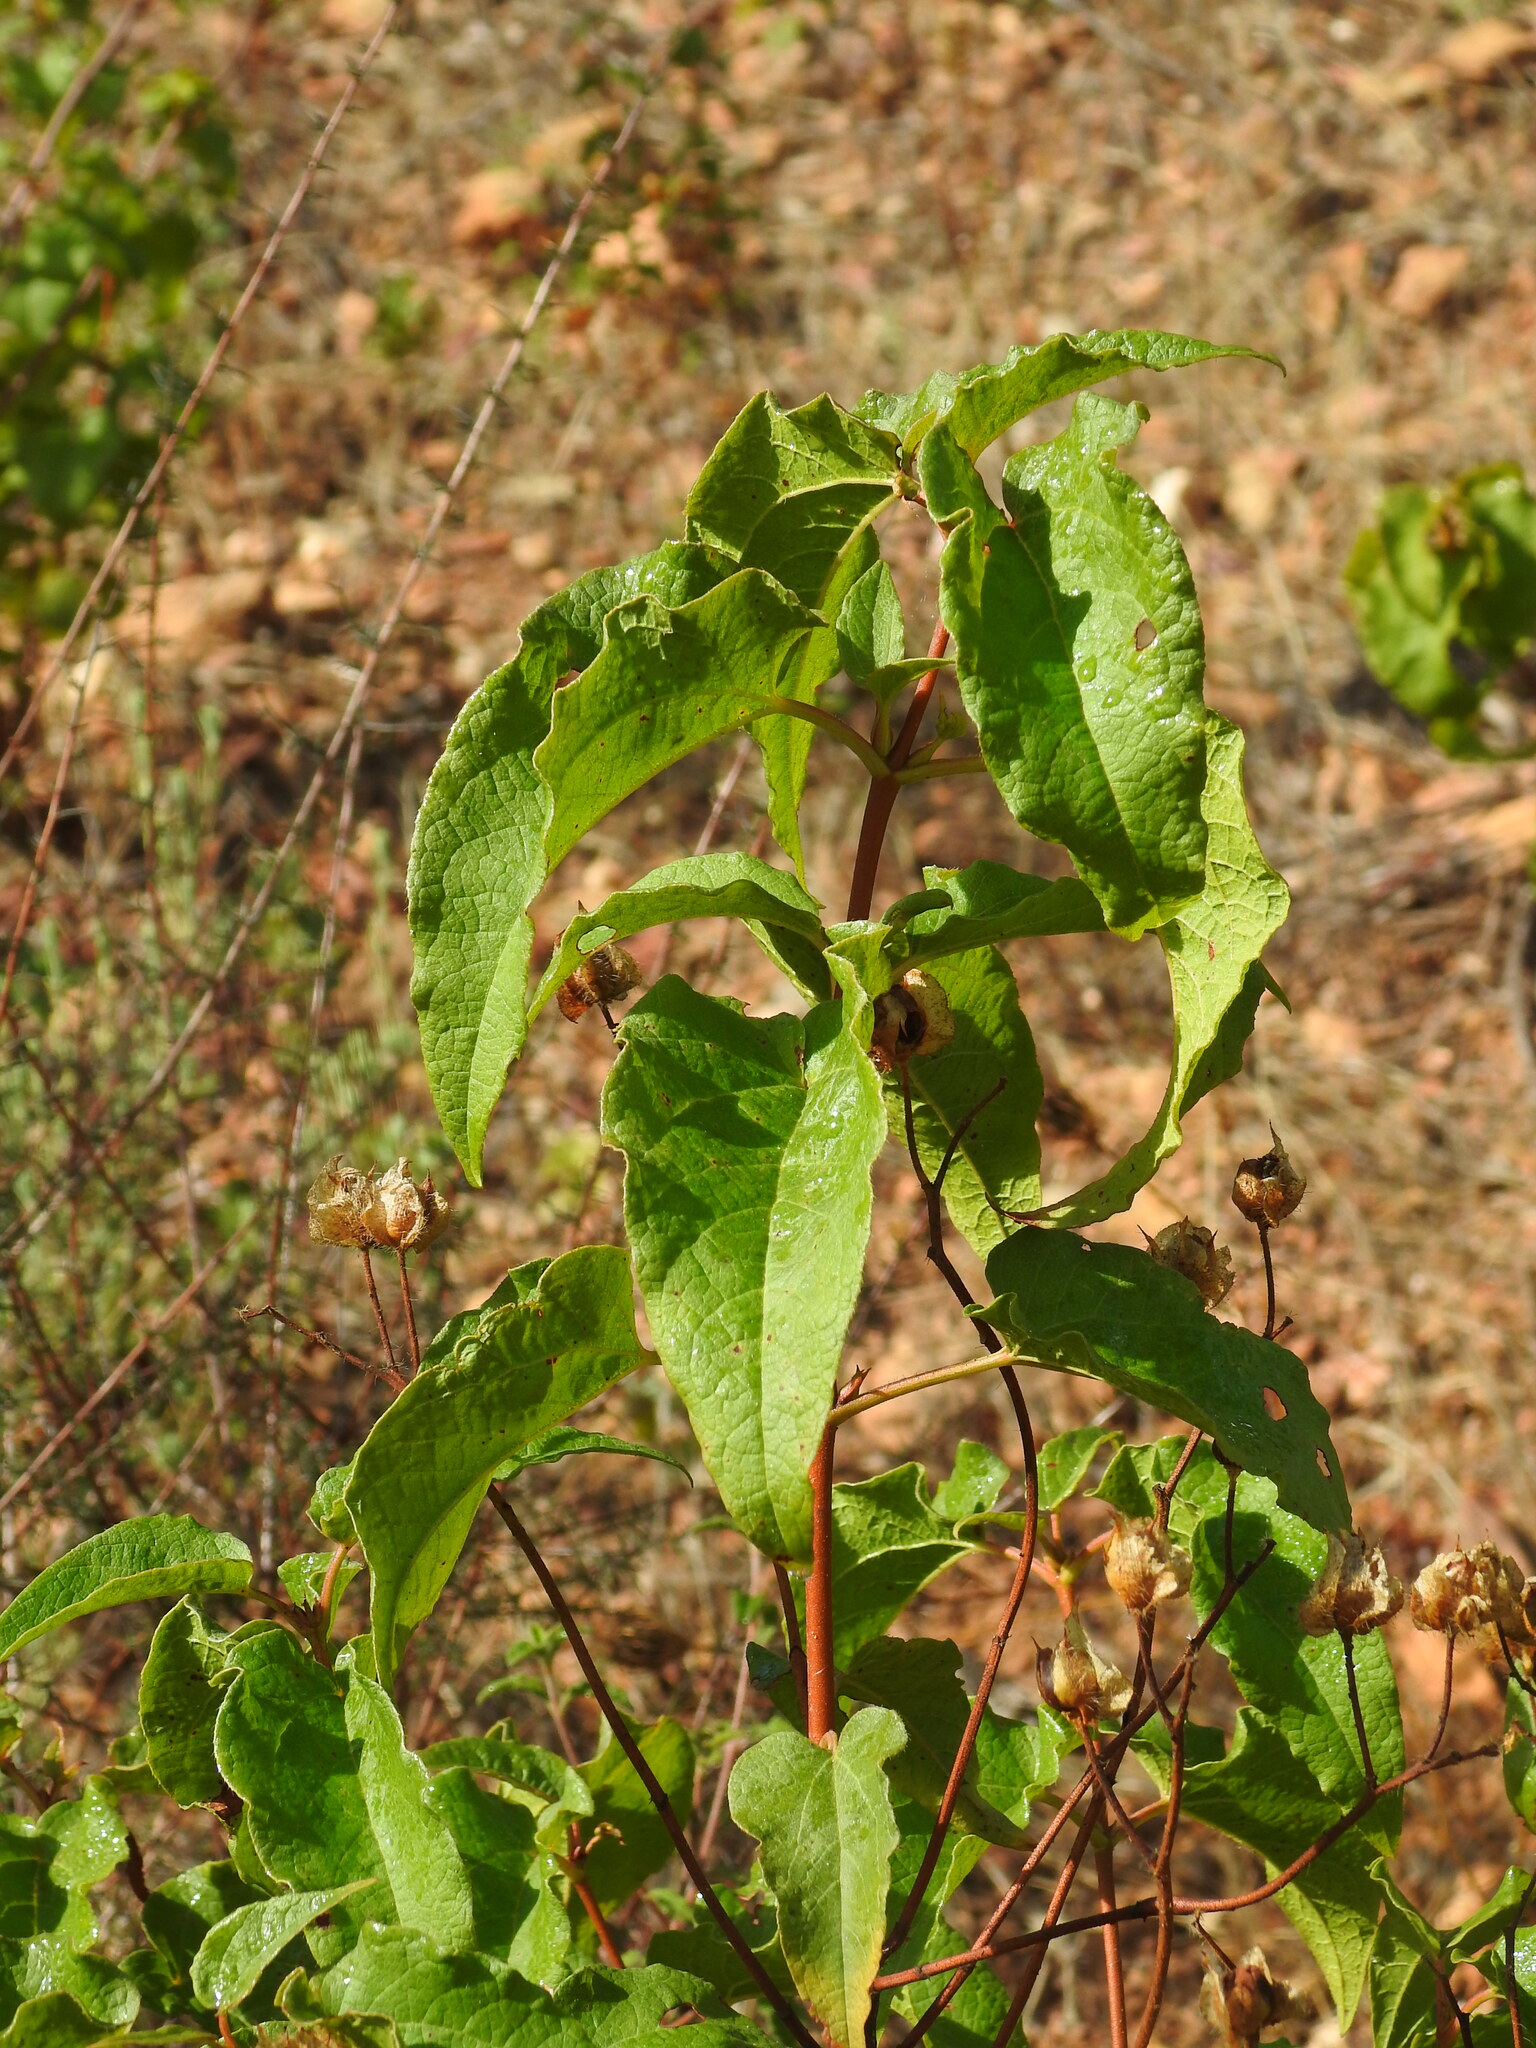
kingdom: Plantae
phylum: Tracheophyta
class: Magnoliopsida
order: Malvales
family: Cistaceae
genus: Cistus
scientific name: Cistus populifolius
